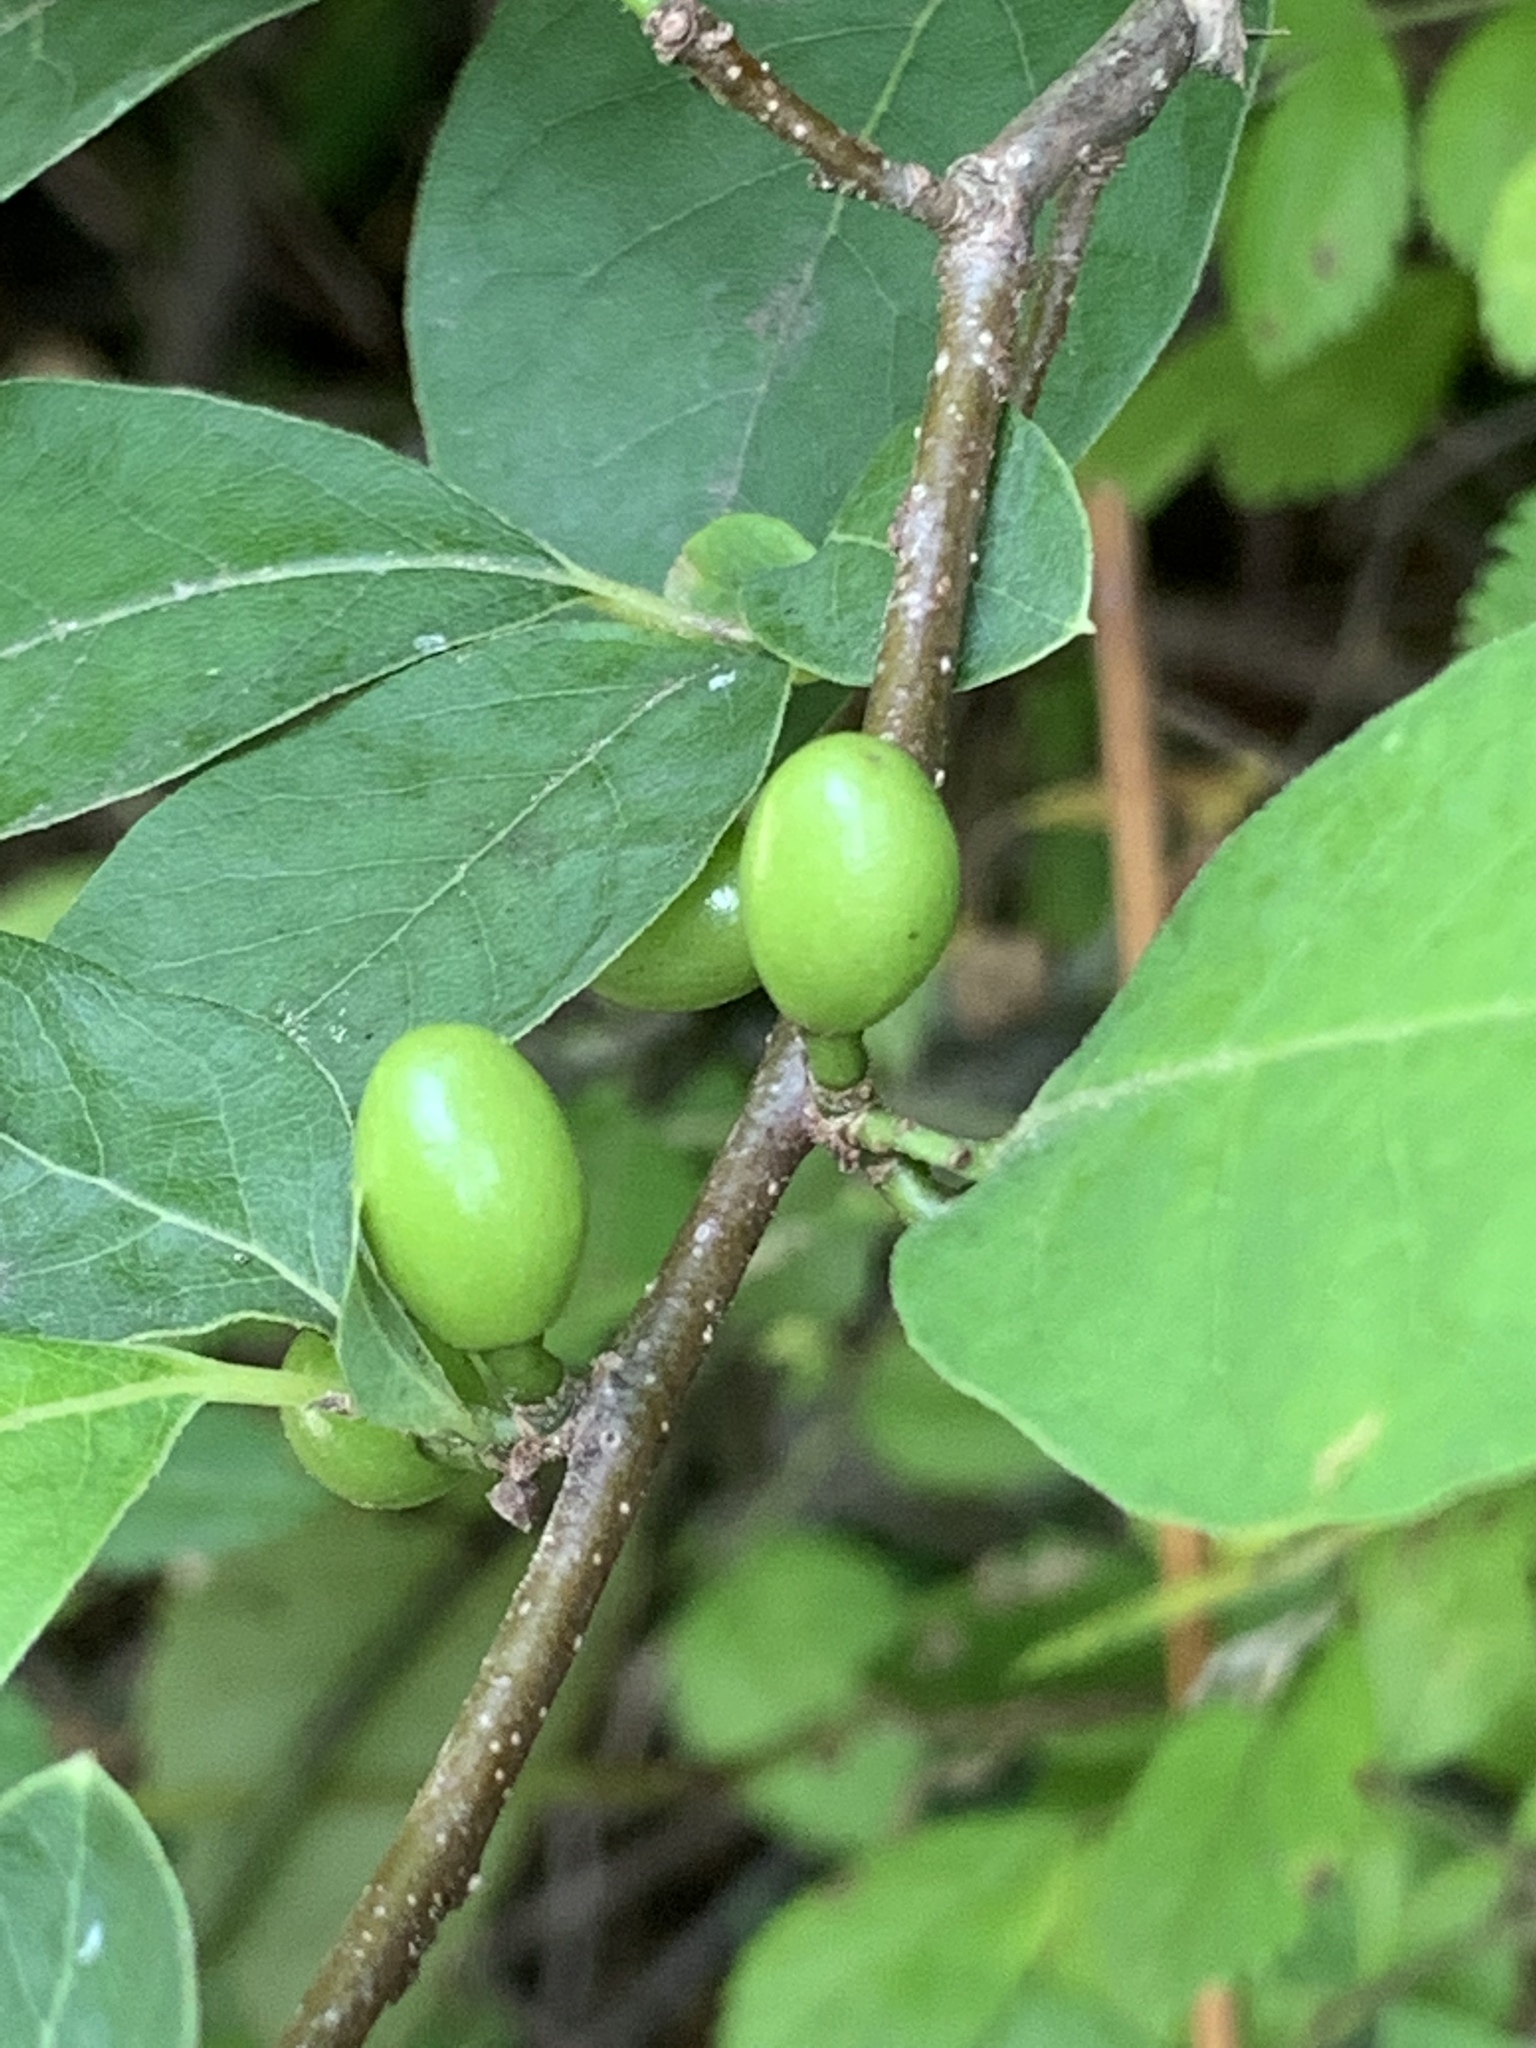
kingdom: Plantae
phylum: Tracheophyta
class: Magnoliopsida
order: Laurales
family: Lauraceae
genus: Lindera
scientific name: Lindera benzoin
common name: Spicebush
